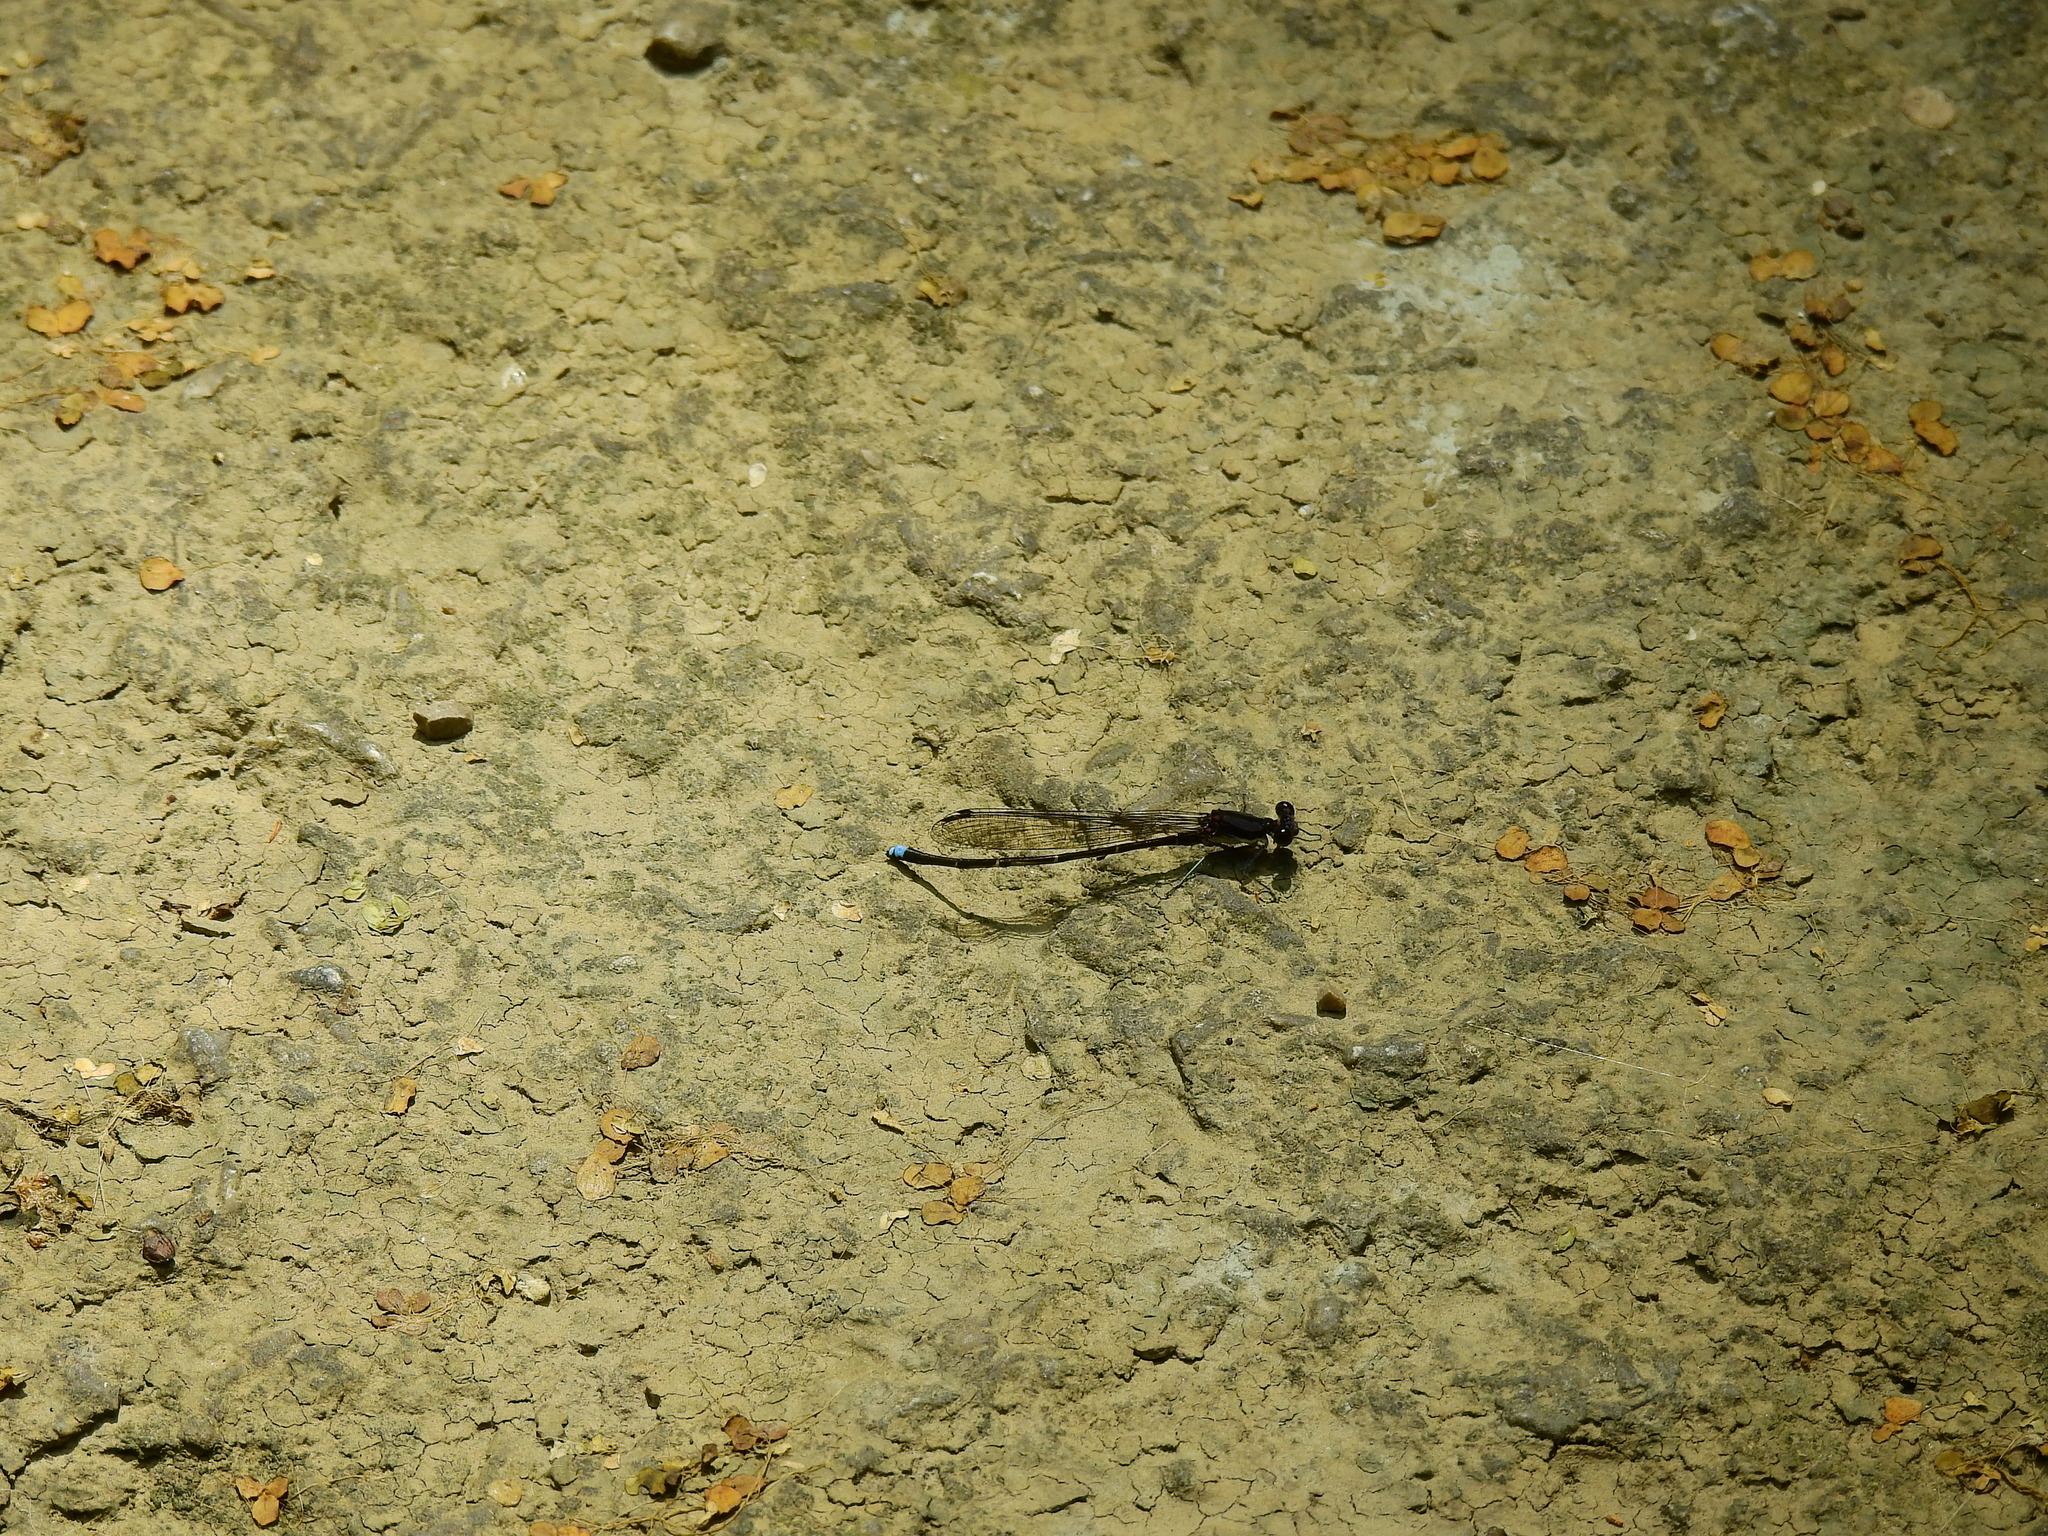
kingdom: Animalia
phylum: Arthropoda
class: Insecta
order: Odonata
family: Coenagrionidae
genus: Argia
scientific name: Argia tibialis
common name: Blue-tipped dancer
